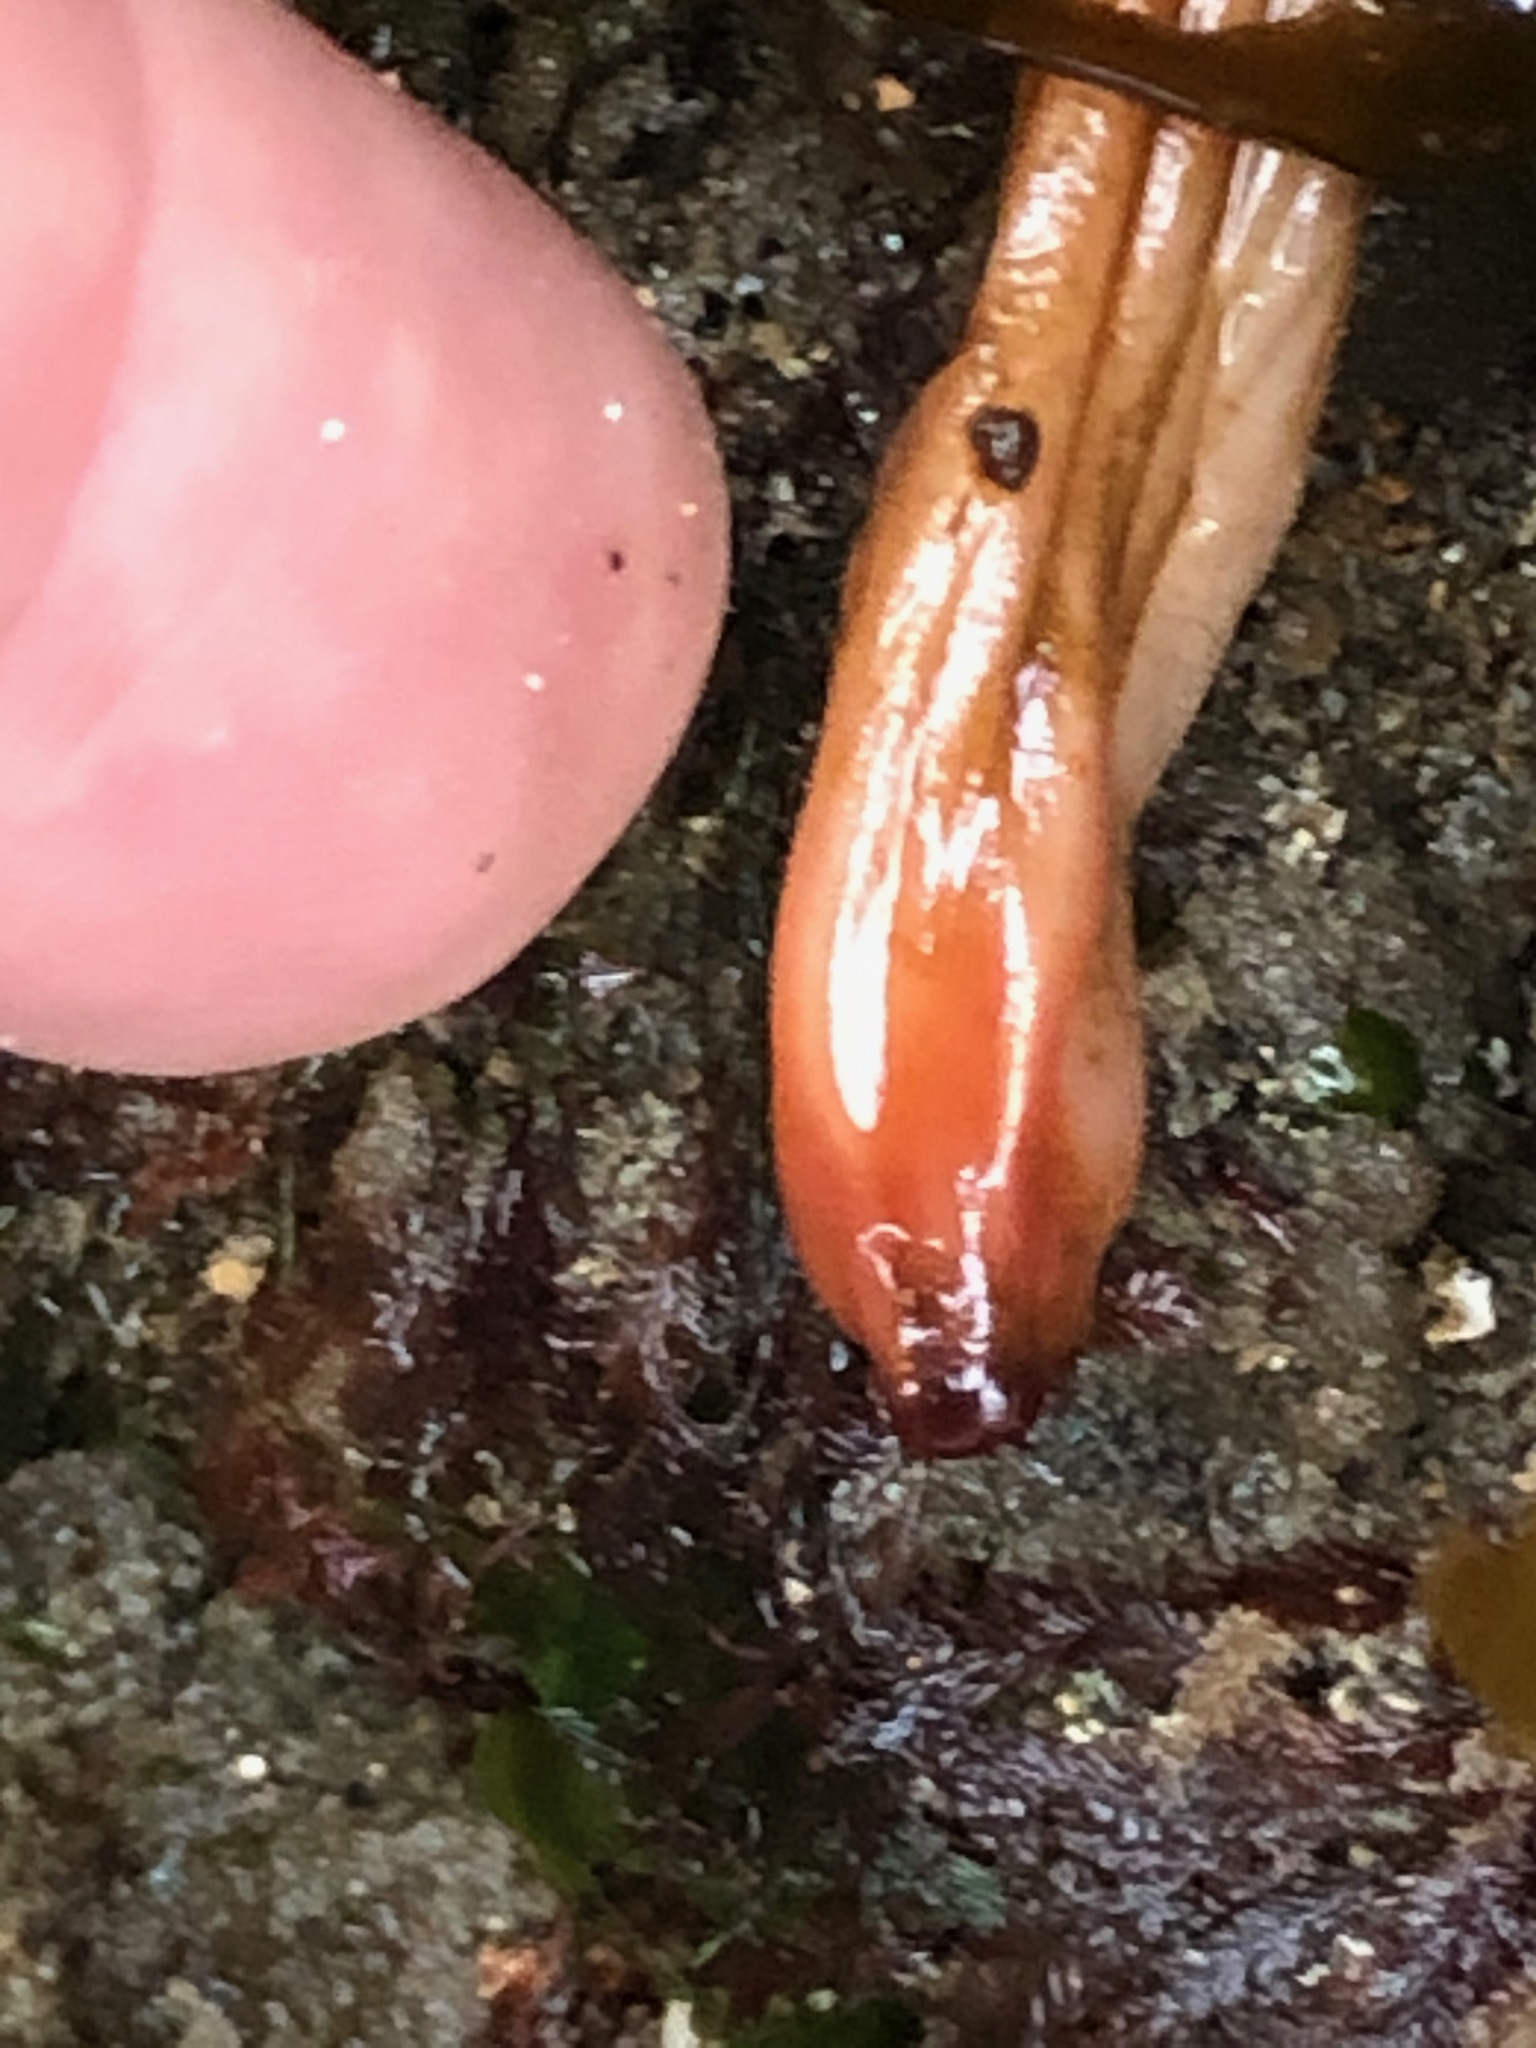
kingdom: Animalia
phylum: Chordata
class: Ascidiacea
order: Stolidobranchia
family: Styelidae
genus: Styela
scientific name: Styela montereyensis
